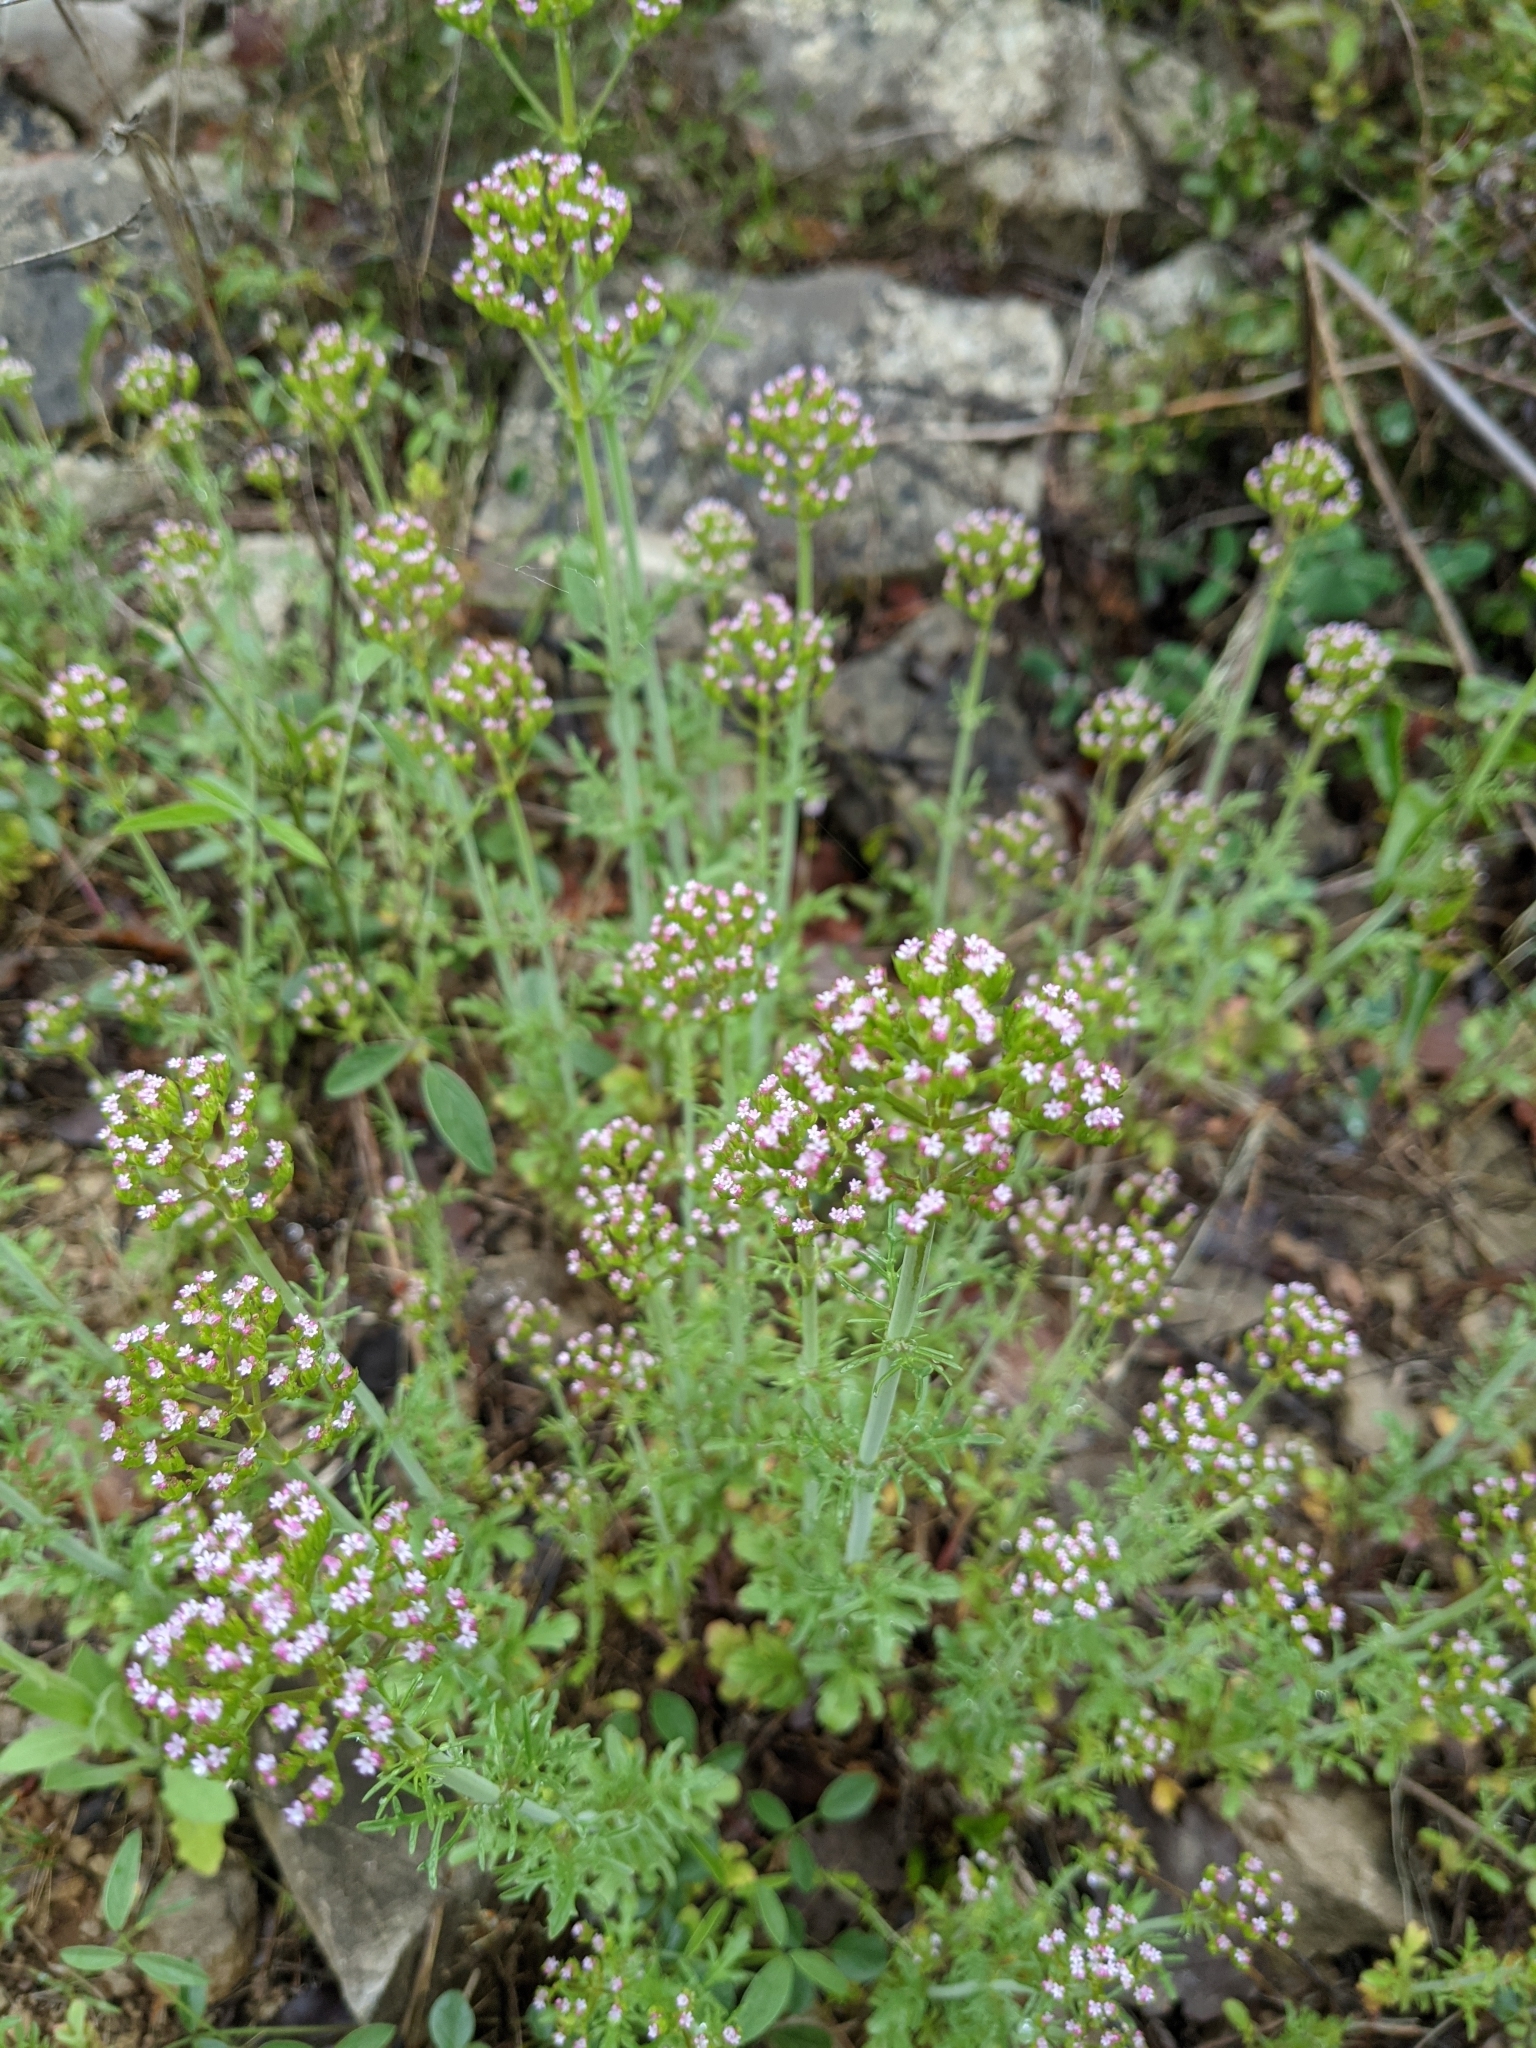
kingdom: Plantae
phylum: Tracheophyta
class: Magnoliopsida
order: Dipsacales
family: Caprifoliaceae
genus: Centranthus
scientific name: Centranthus calcitrapae
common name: Annual valerian
